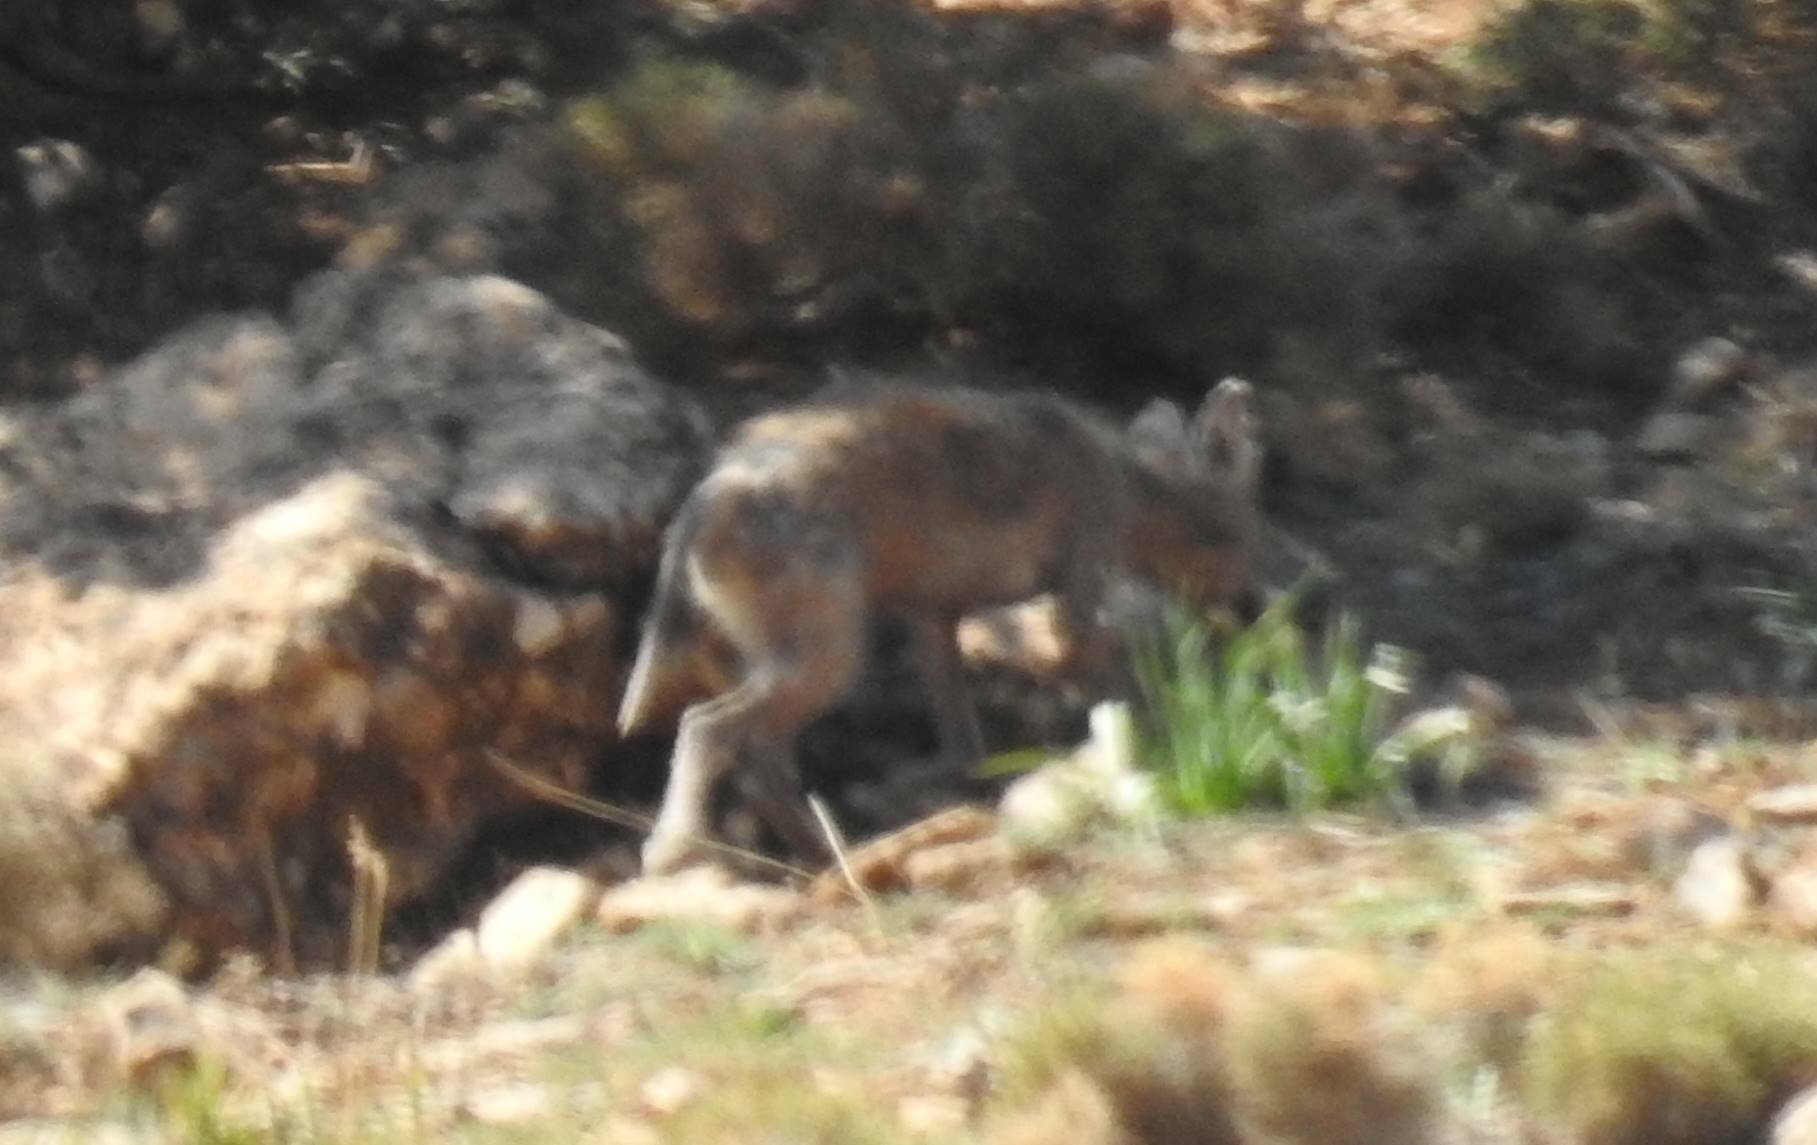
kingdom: Animalia
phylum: Chordata
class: Mammalia
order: Carnivora
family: Canidae
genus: Canis
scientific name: Canis lupaster
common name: African golden wolf
